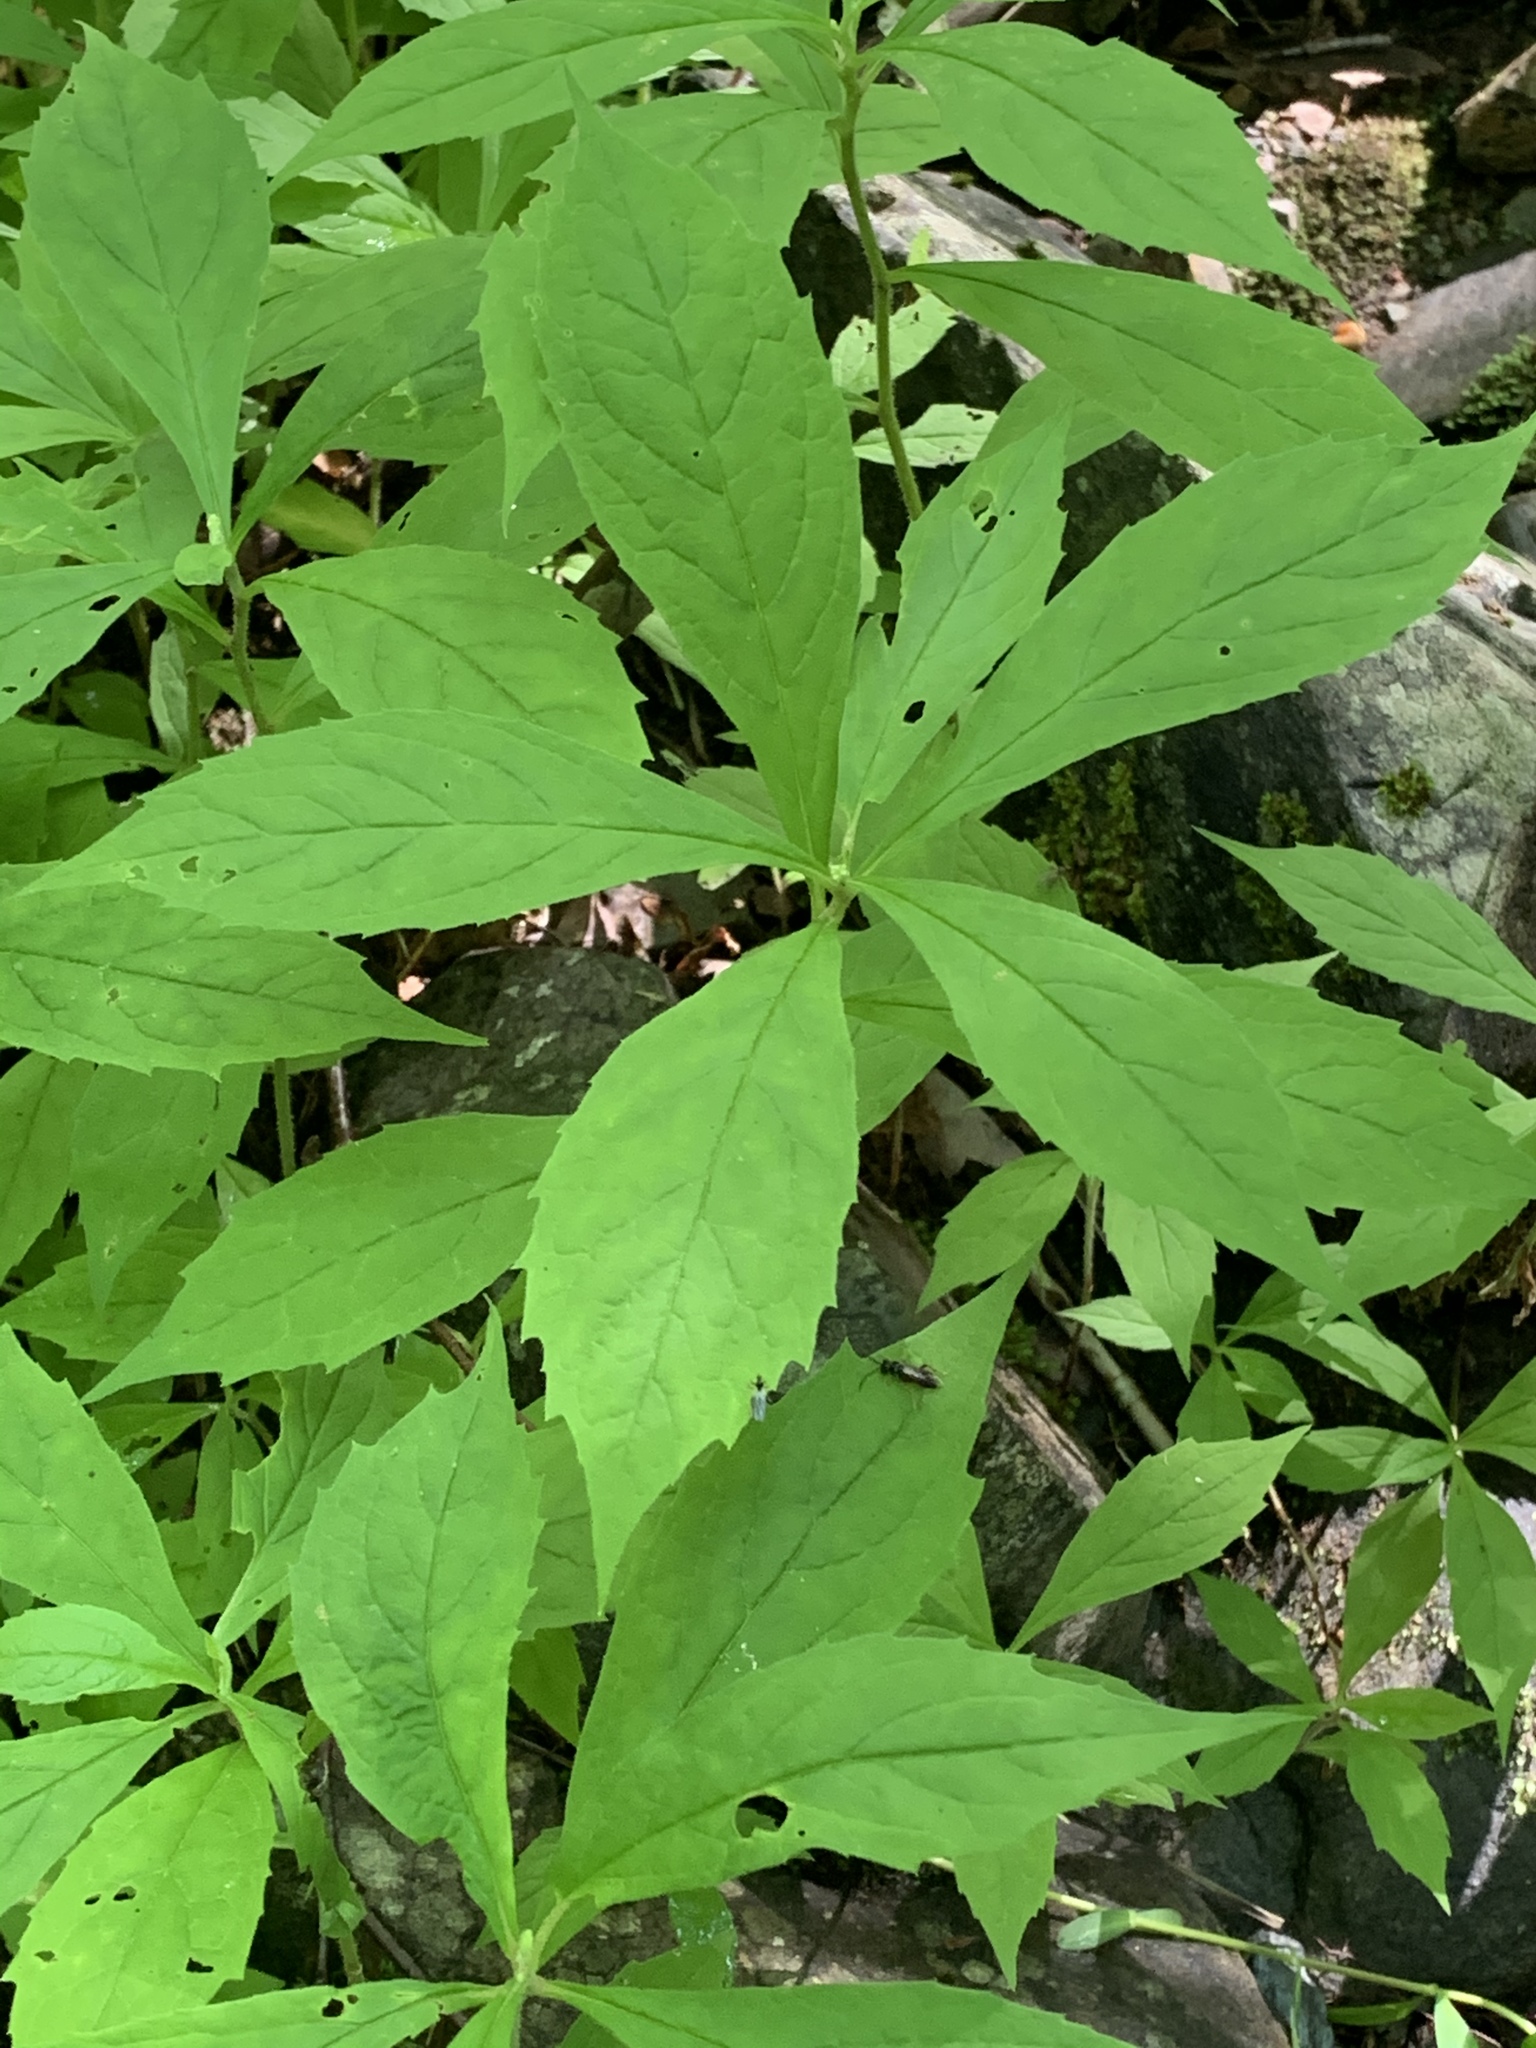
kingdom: Plantae
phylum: Tracheophyta
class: Magnoliopsida
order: Asterales
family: Asteraceae
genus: Oclemena
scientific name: Oclemena acuminata
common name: Mountain aster
